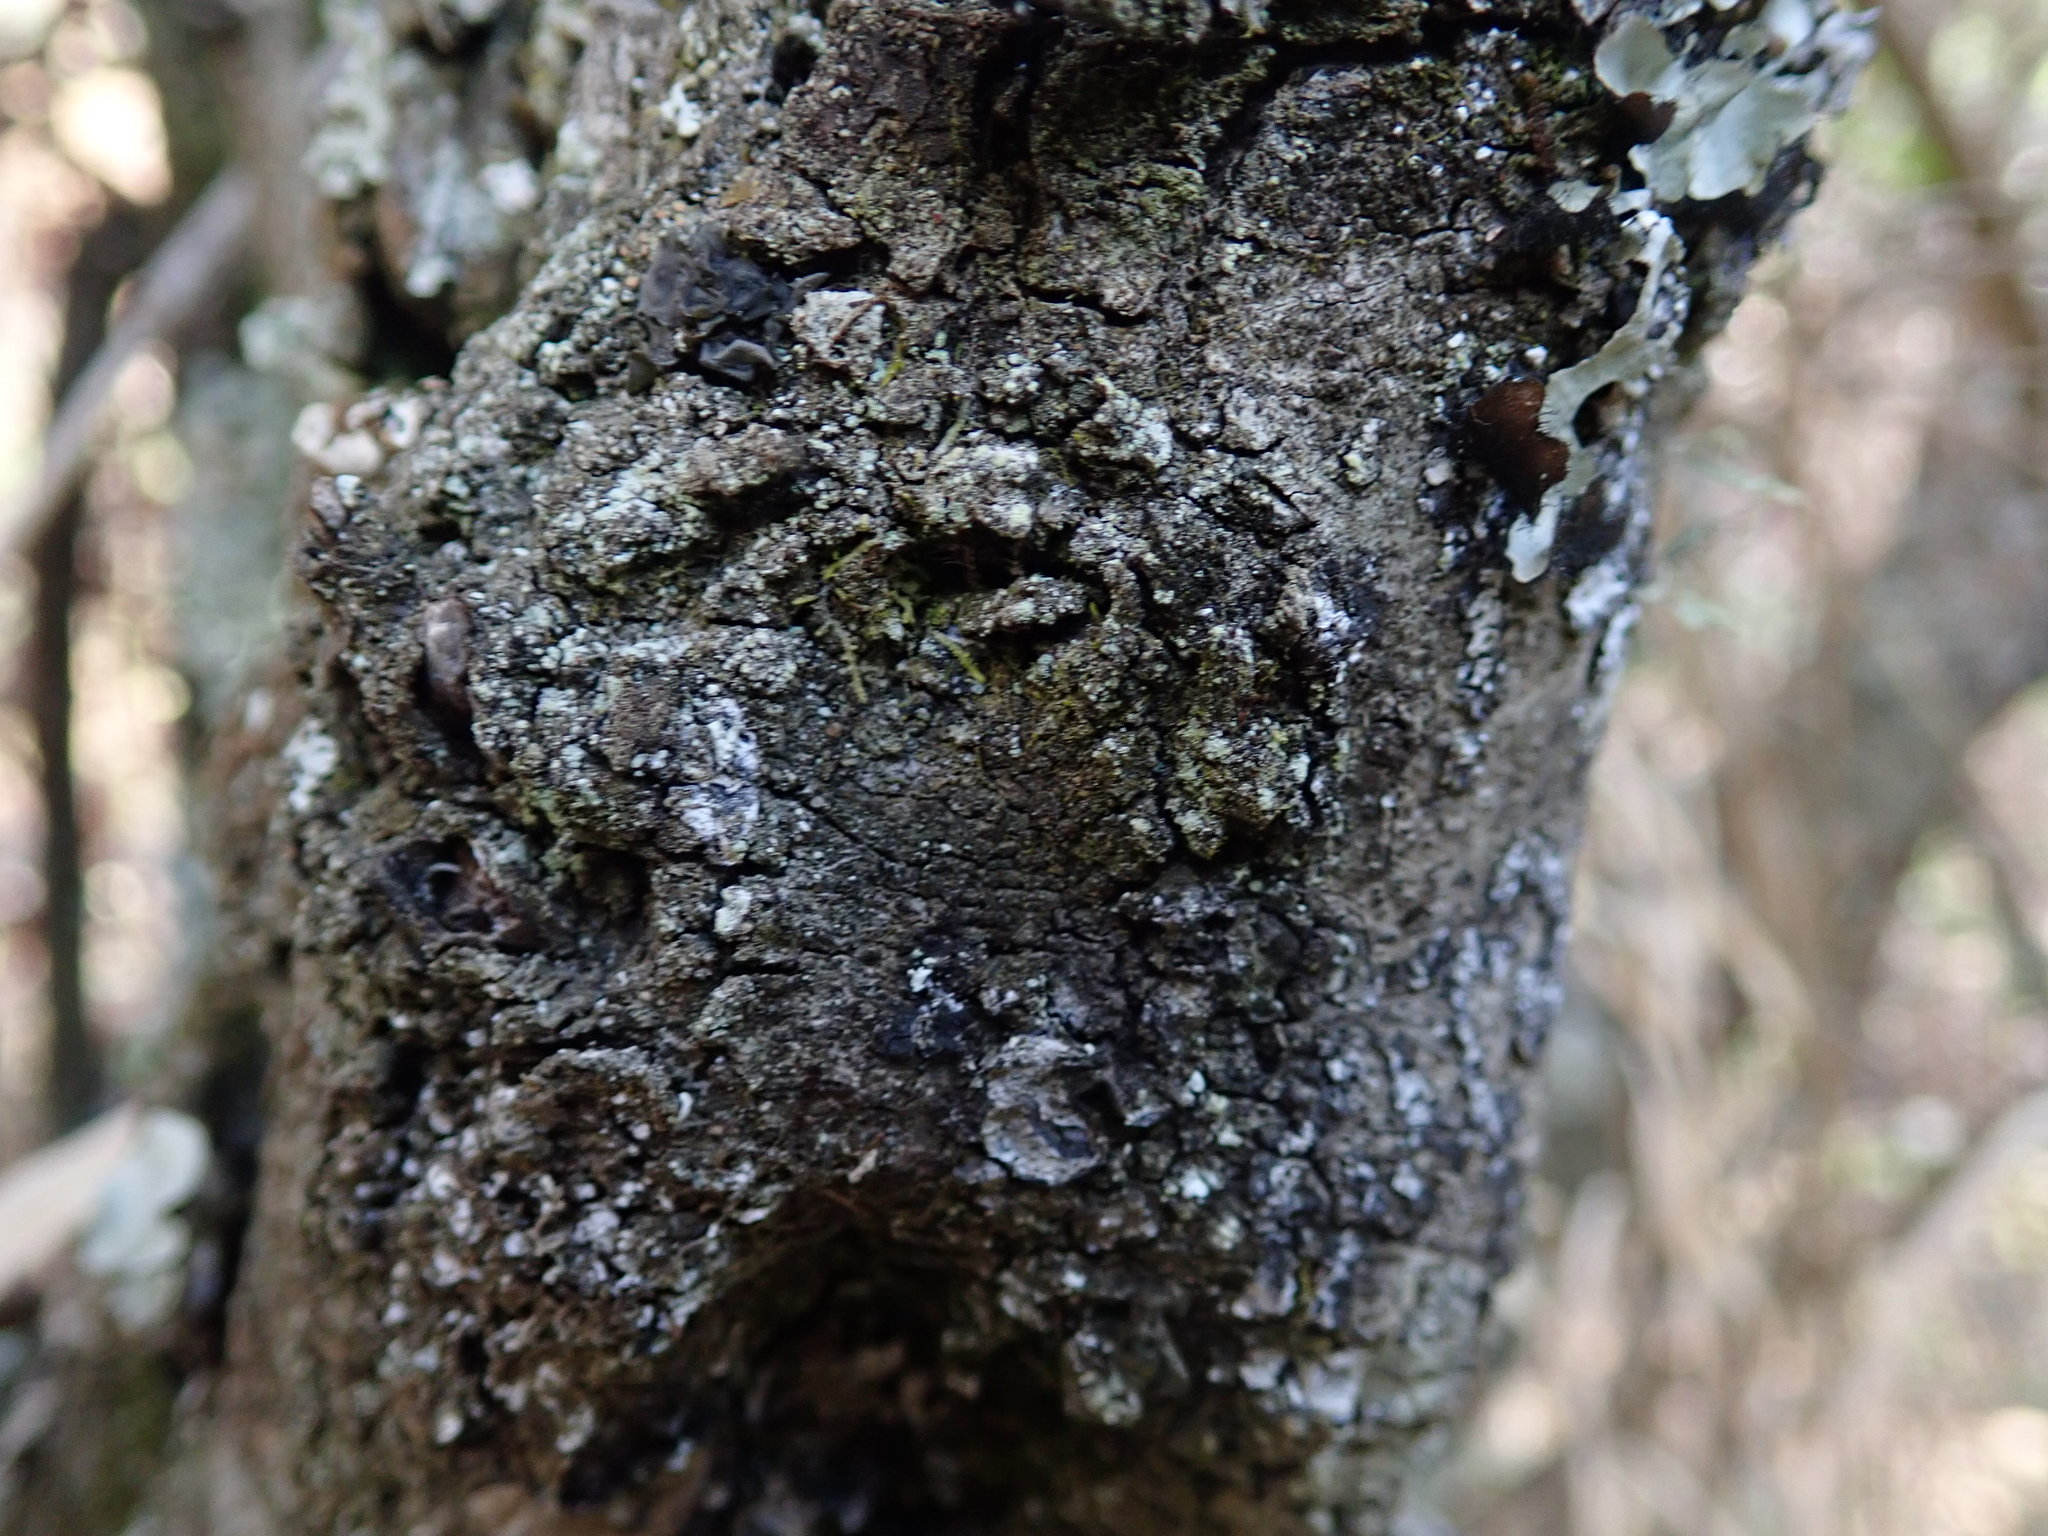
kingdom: Plantae
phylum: Tracheophyta
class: Magnoliopsida
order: Ericales
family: Ebenaceae
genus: Euclea
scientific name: Euclea crispa
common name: Blue guarri
